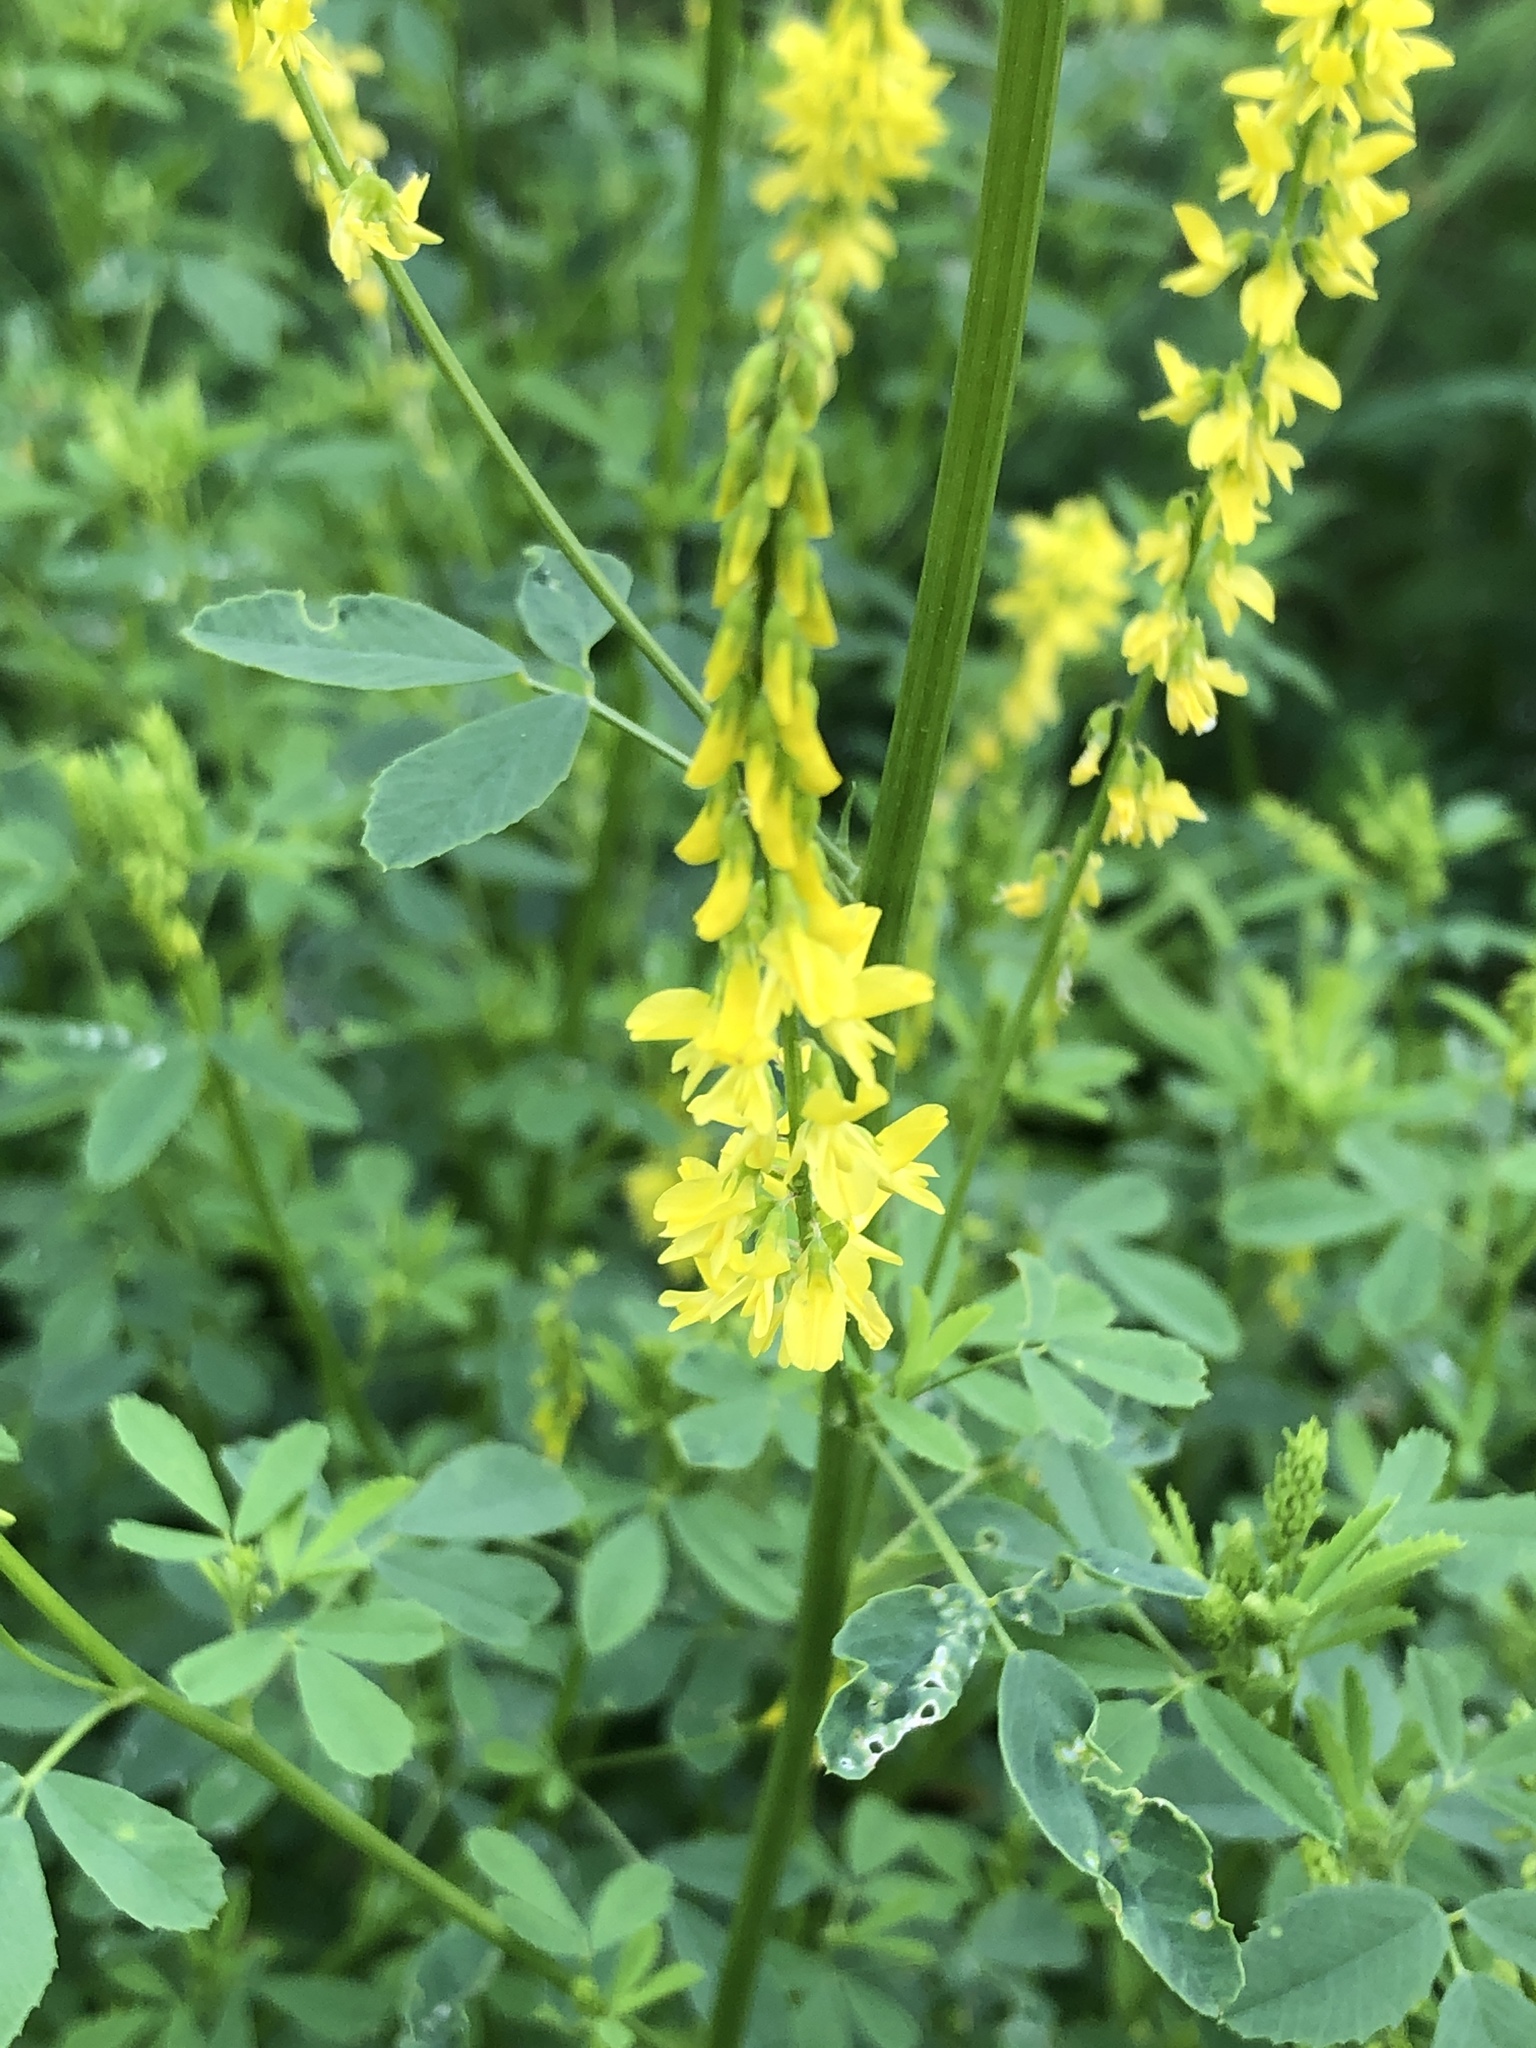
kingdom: Plantae
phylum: Tracheophyta
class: Magnoliopsida
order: Fabales
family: Fabaceae
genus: Melilotus
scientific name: Melilotus officinalis
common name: Sweetclover
